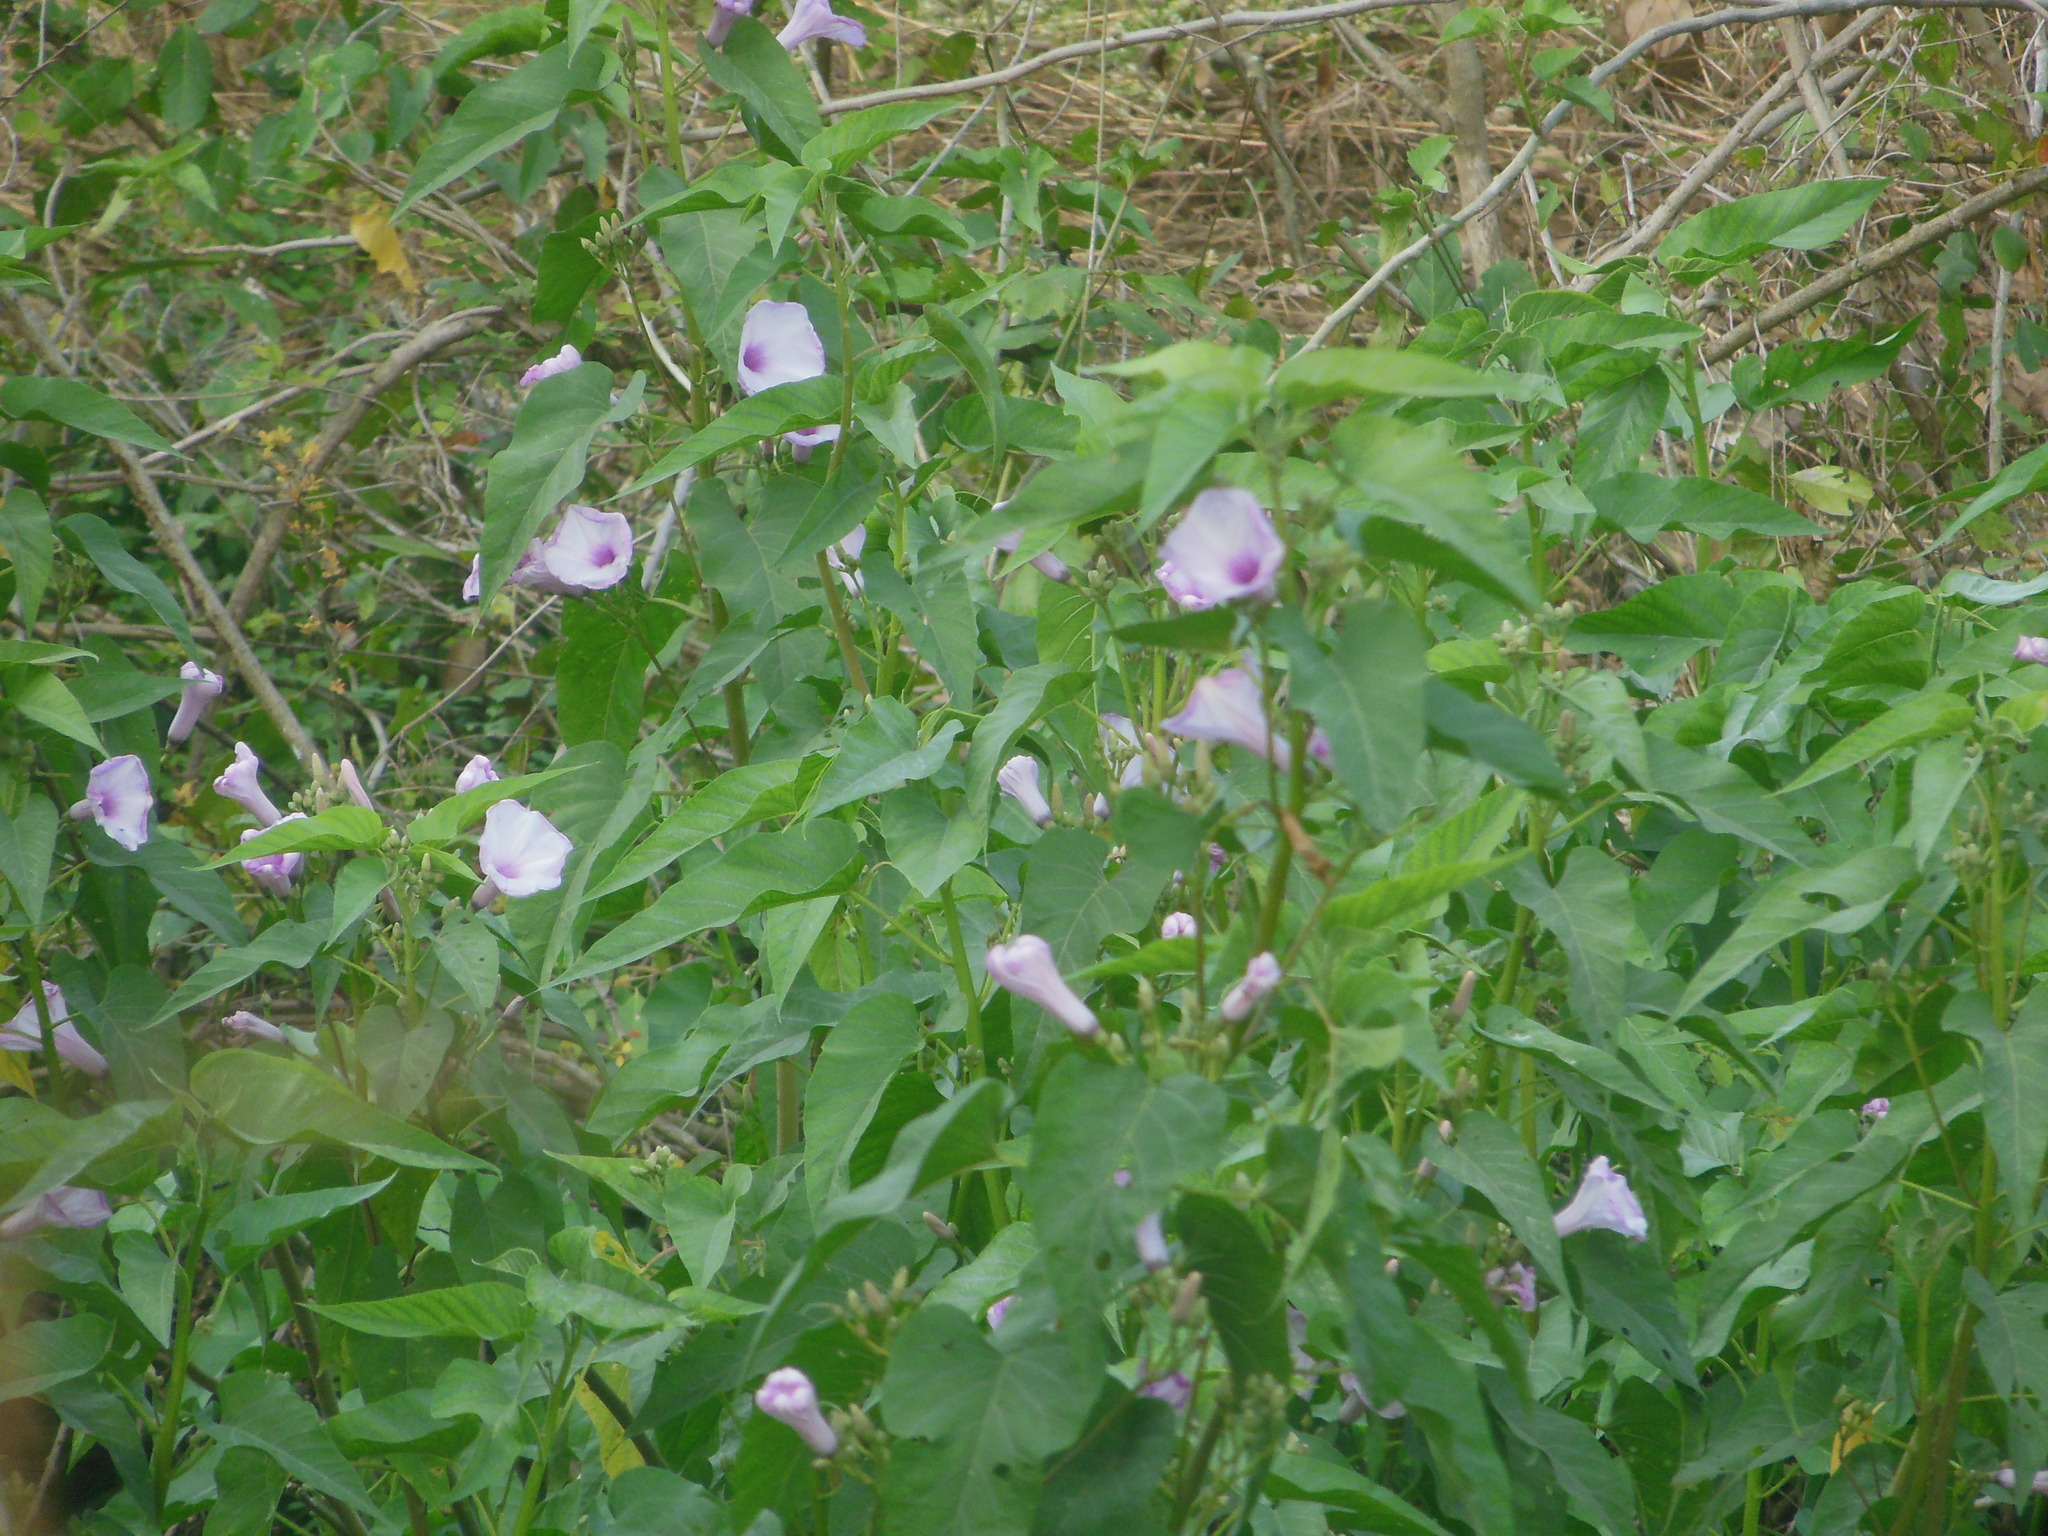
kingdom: Plantae
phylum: Tracheophyta
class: Magnoliopsida
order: Solanales
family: Convolvulaceae
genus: Ipomoea
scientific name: Ipomoea carnea
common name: Morning-glory
